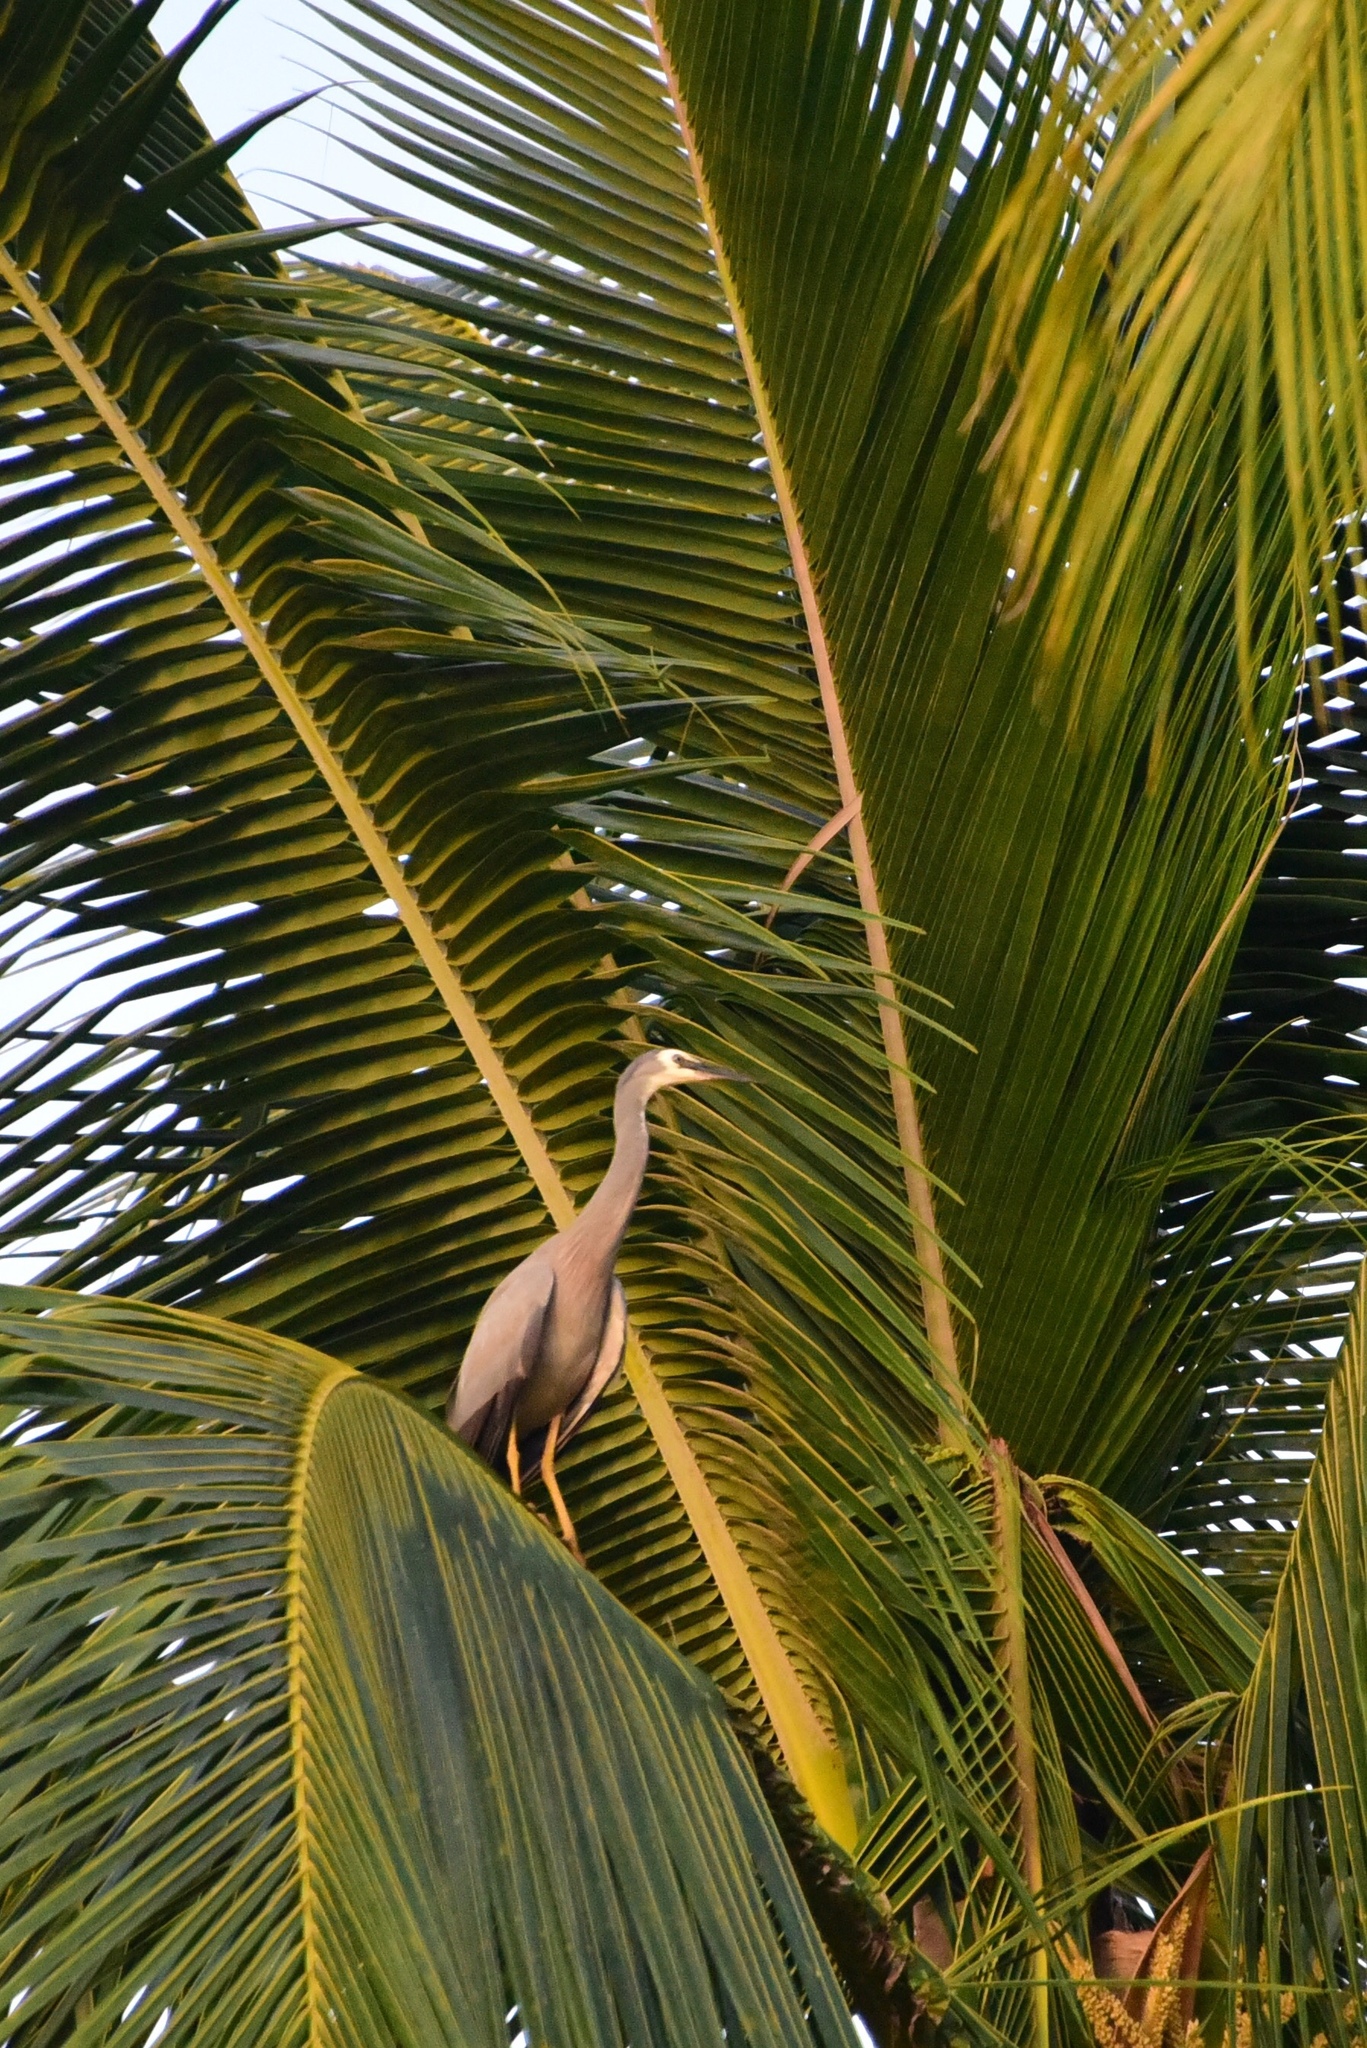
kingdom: Animalia
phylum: Chordata
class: Aves
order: Pelecaniformes
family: Ardeidae
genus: Egretta
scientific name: Egretta novaehollandiae
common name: White-faced heron
